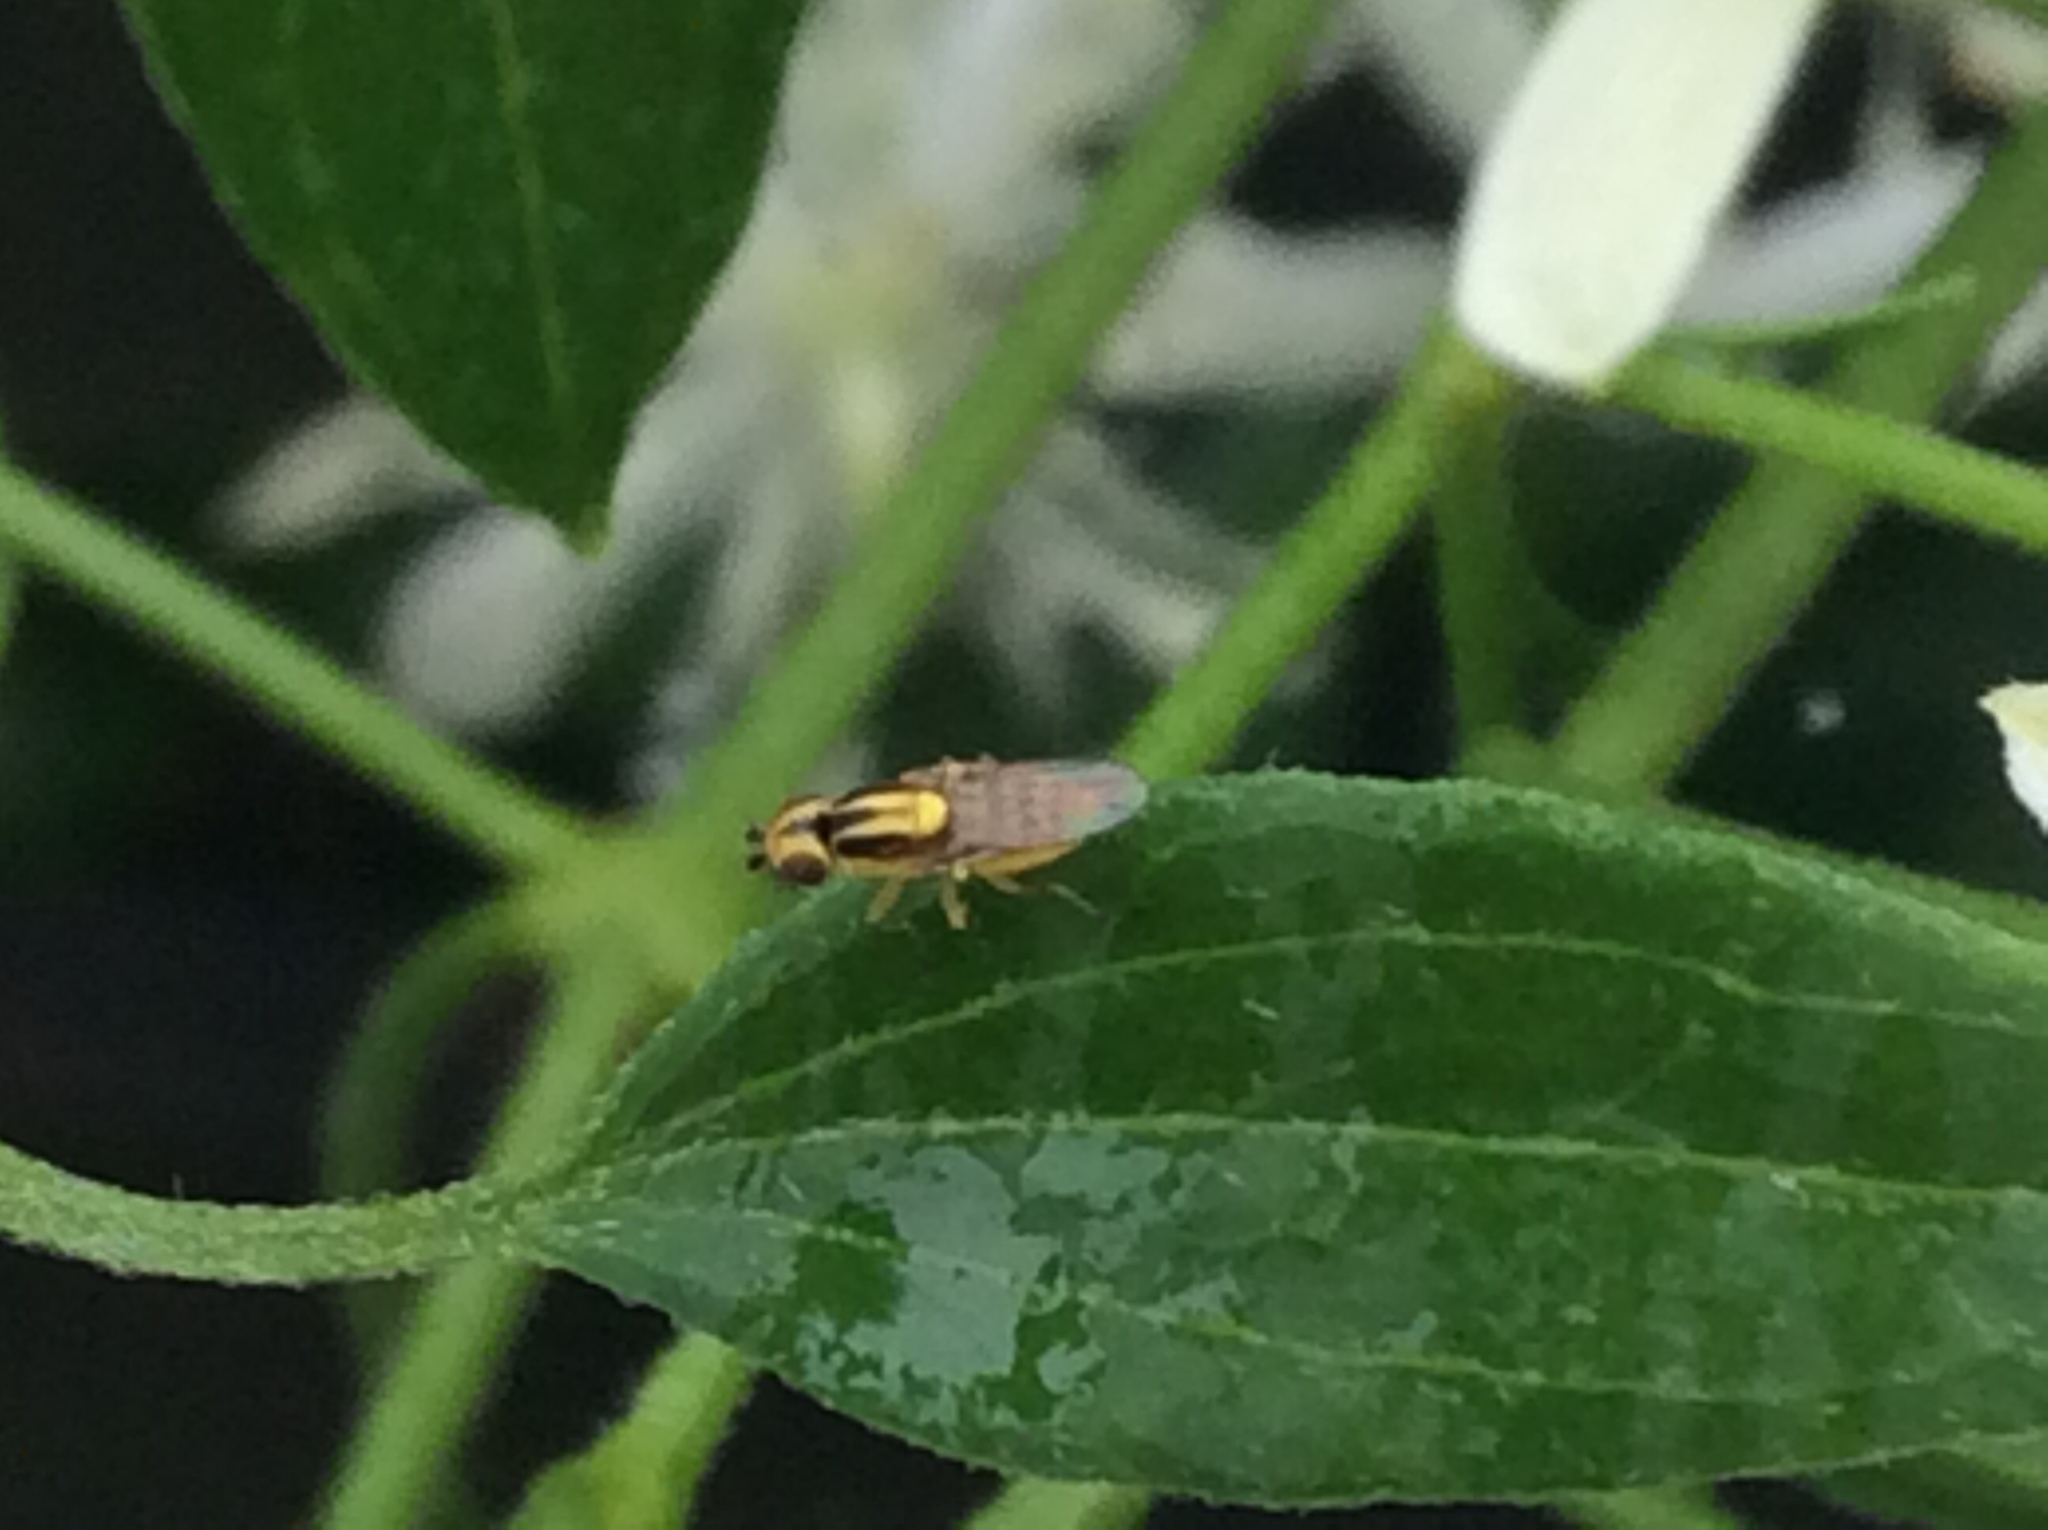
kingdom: Animalia
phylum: Arthropoda
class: Insecta
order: Diptera
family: Chloropidae
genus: Thaumatomyia
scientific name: Thaumatomyia glabra
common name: Chloropid fly
